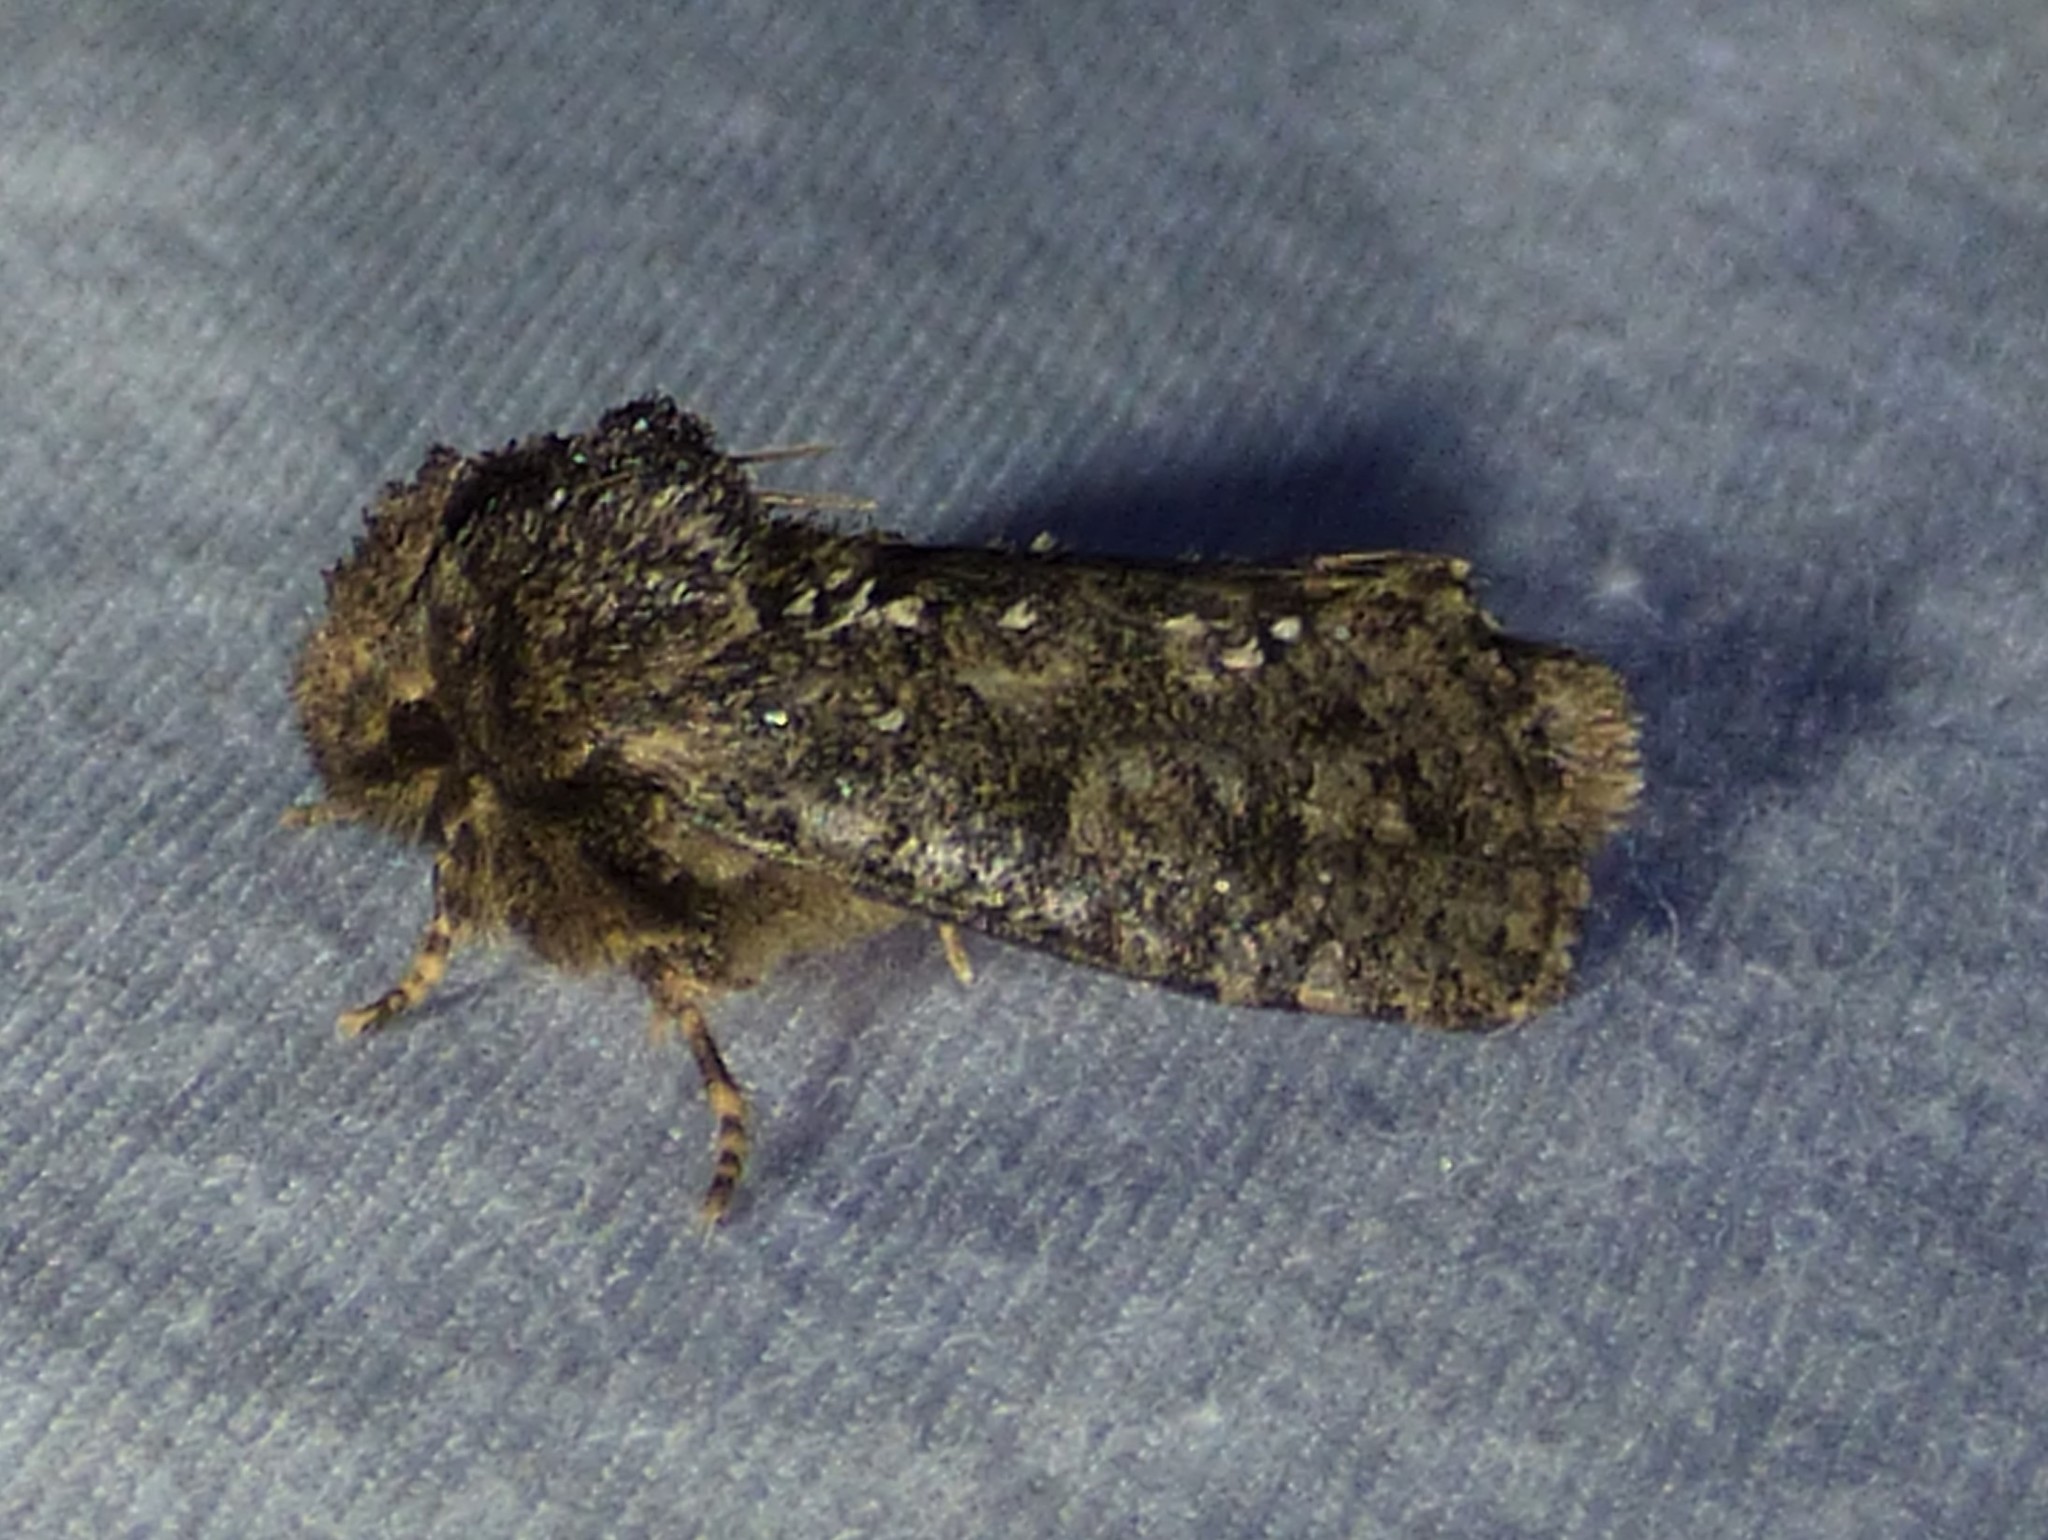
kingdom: Animalia
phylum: Arthropoda
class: Insecta
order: Lepidoptera
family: Tineidae
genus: Acrolophus
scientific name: Acrolophus arcanella
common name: Arcane grass tubeworm moth
